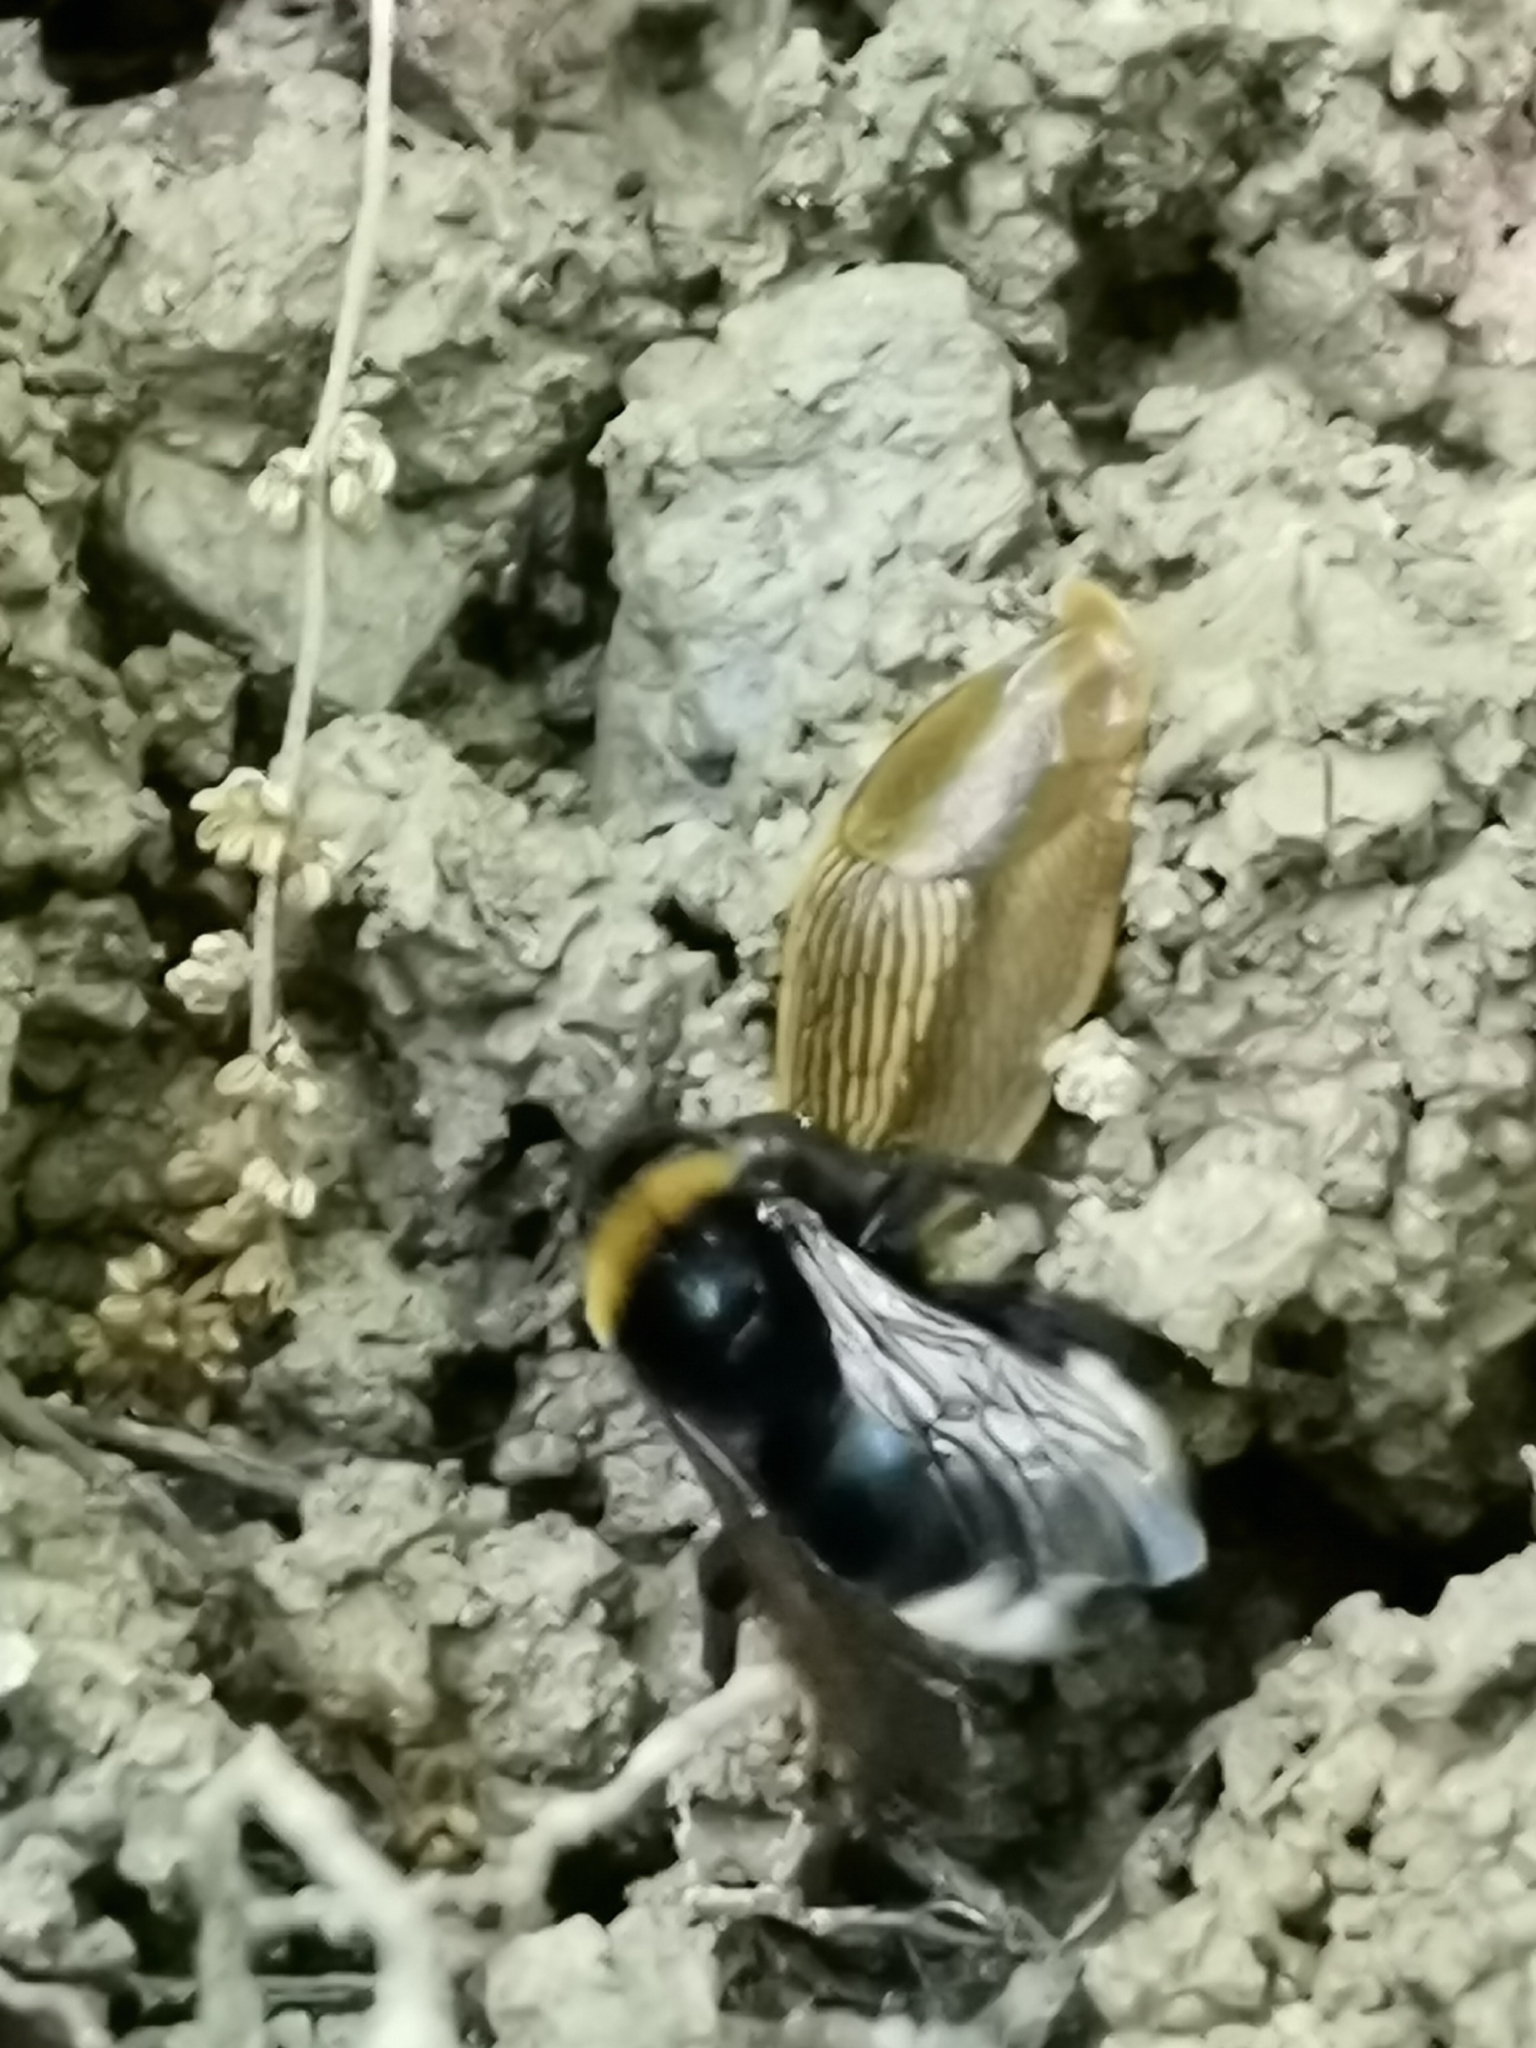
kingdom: Animalia
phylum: Arthropoda
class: Insecta
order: Hymenoptera
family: Apidae
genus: Bombus
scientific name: Bombus bohemicus
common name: Gypsy cuckoo bee
